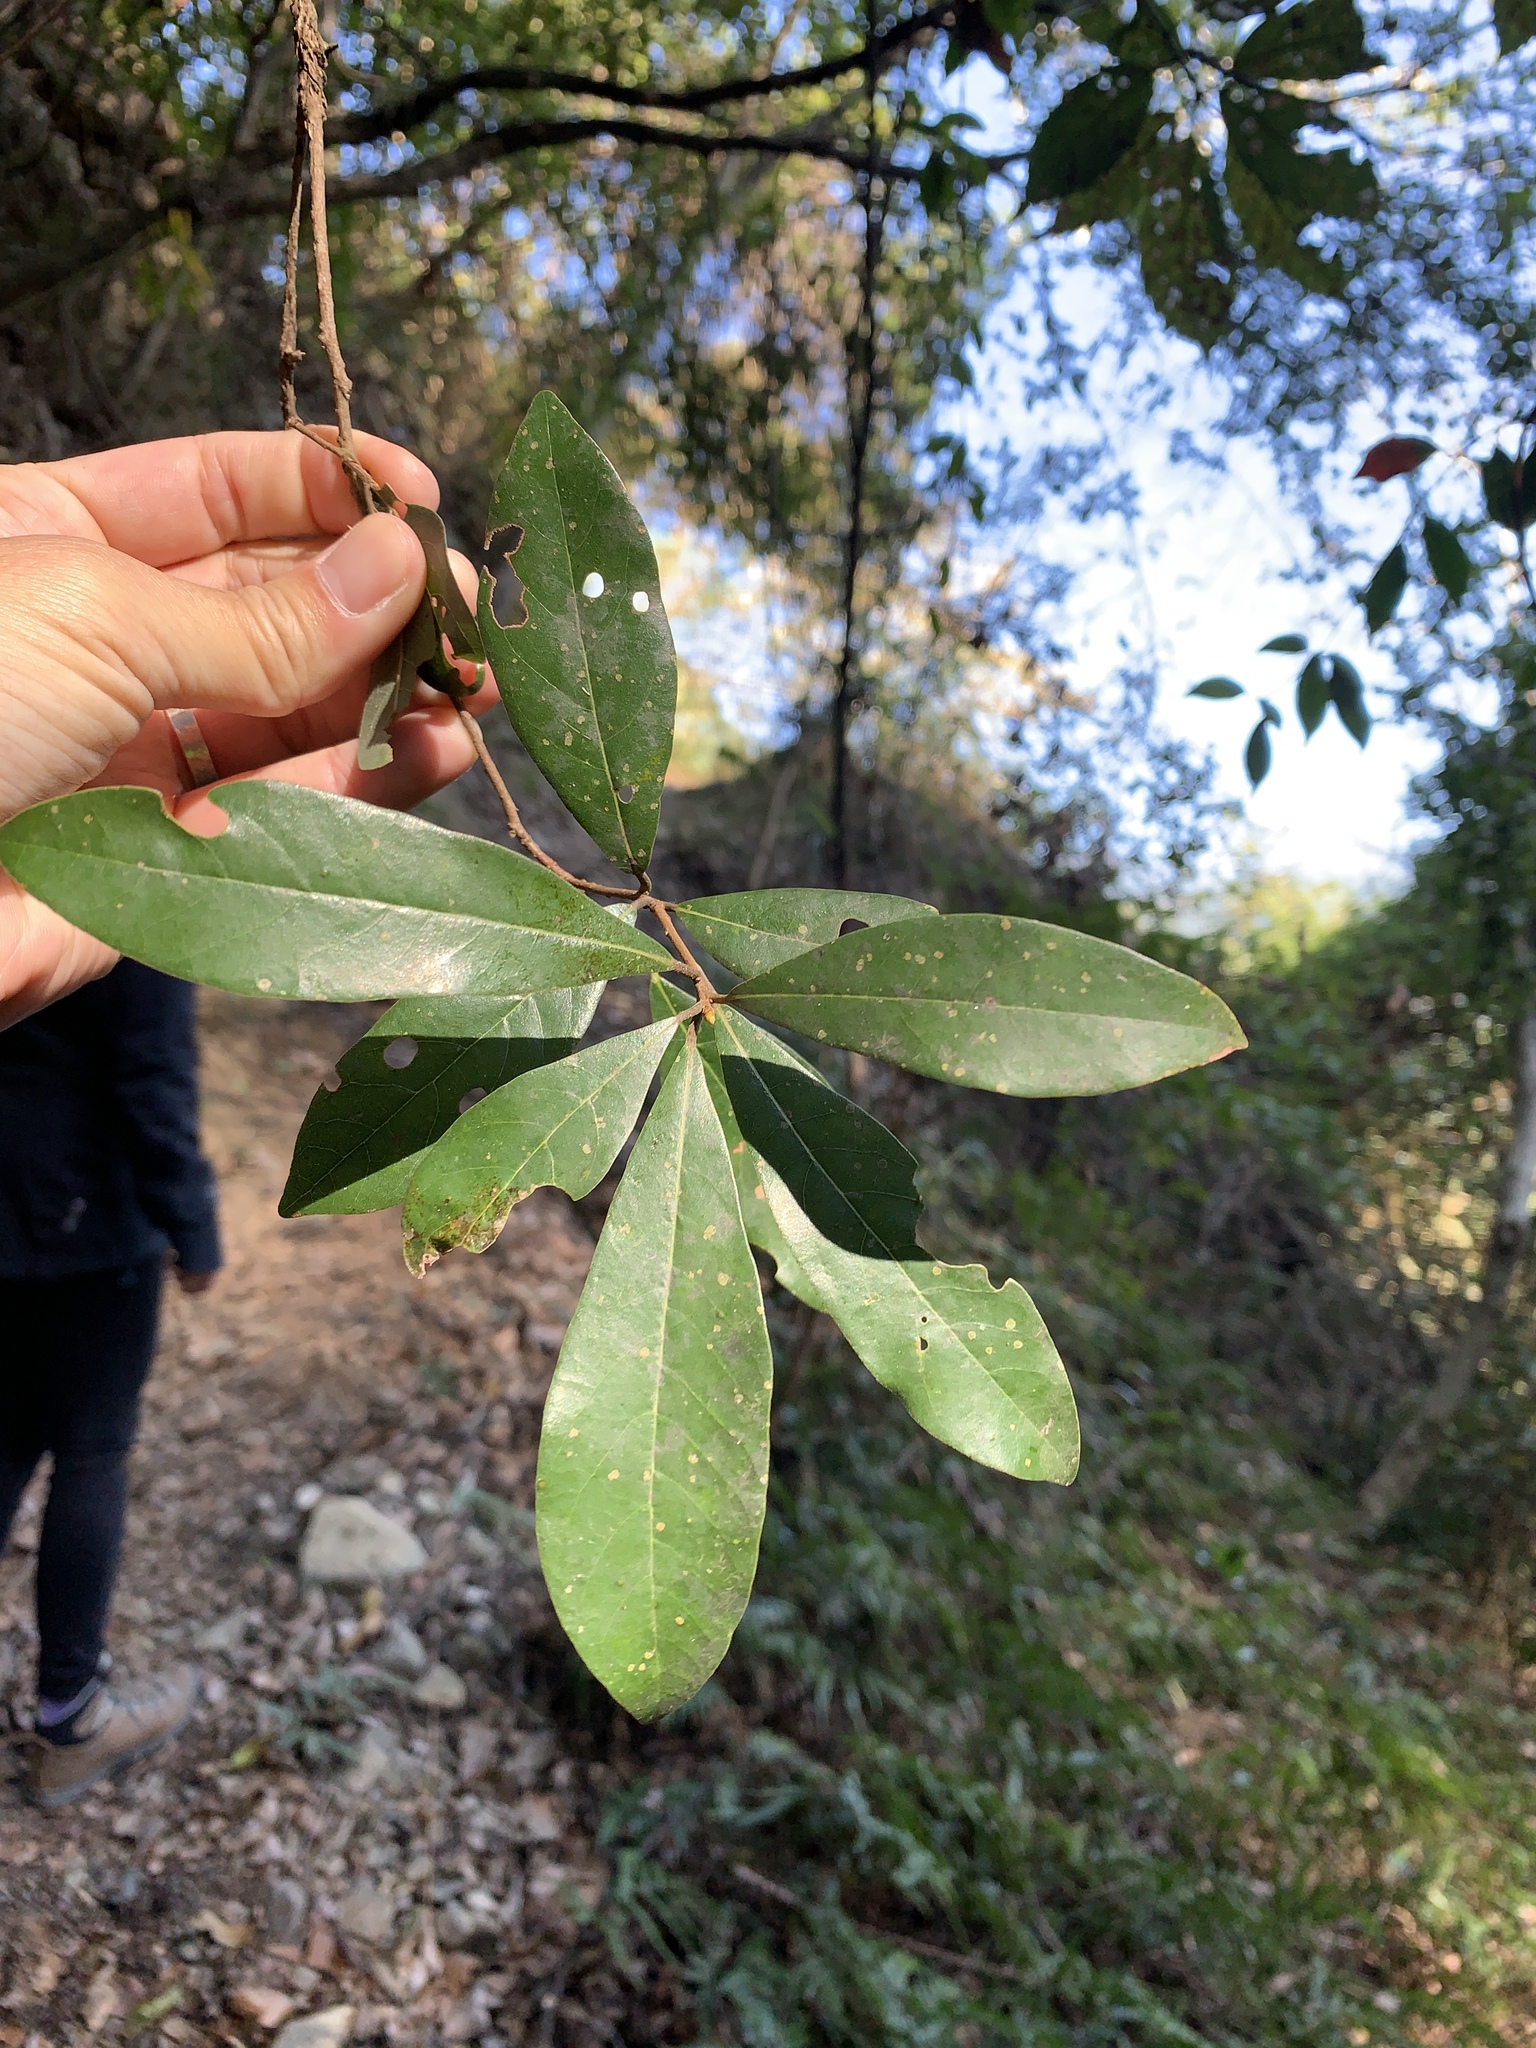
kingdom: Plantae
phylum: Tracheophyta
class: Magnoliopsida
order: Laurales
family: Lauraceae
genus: Litsea
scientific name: Litsea hypophaea
